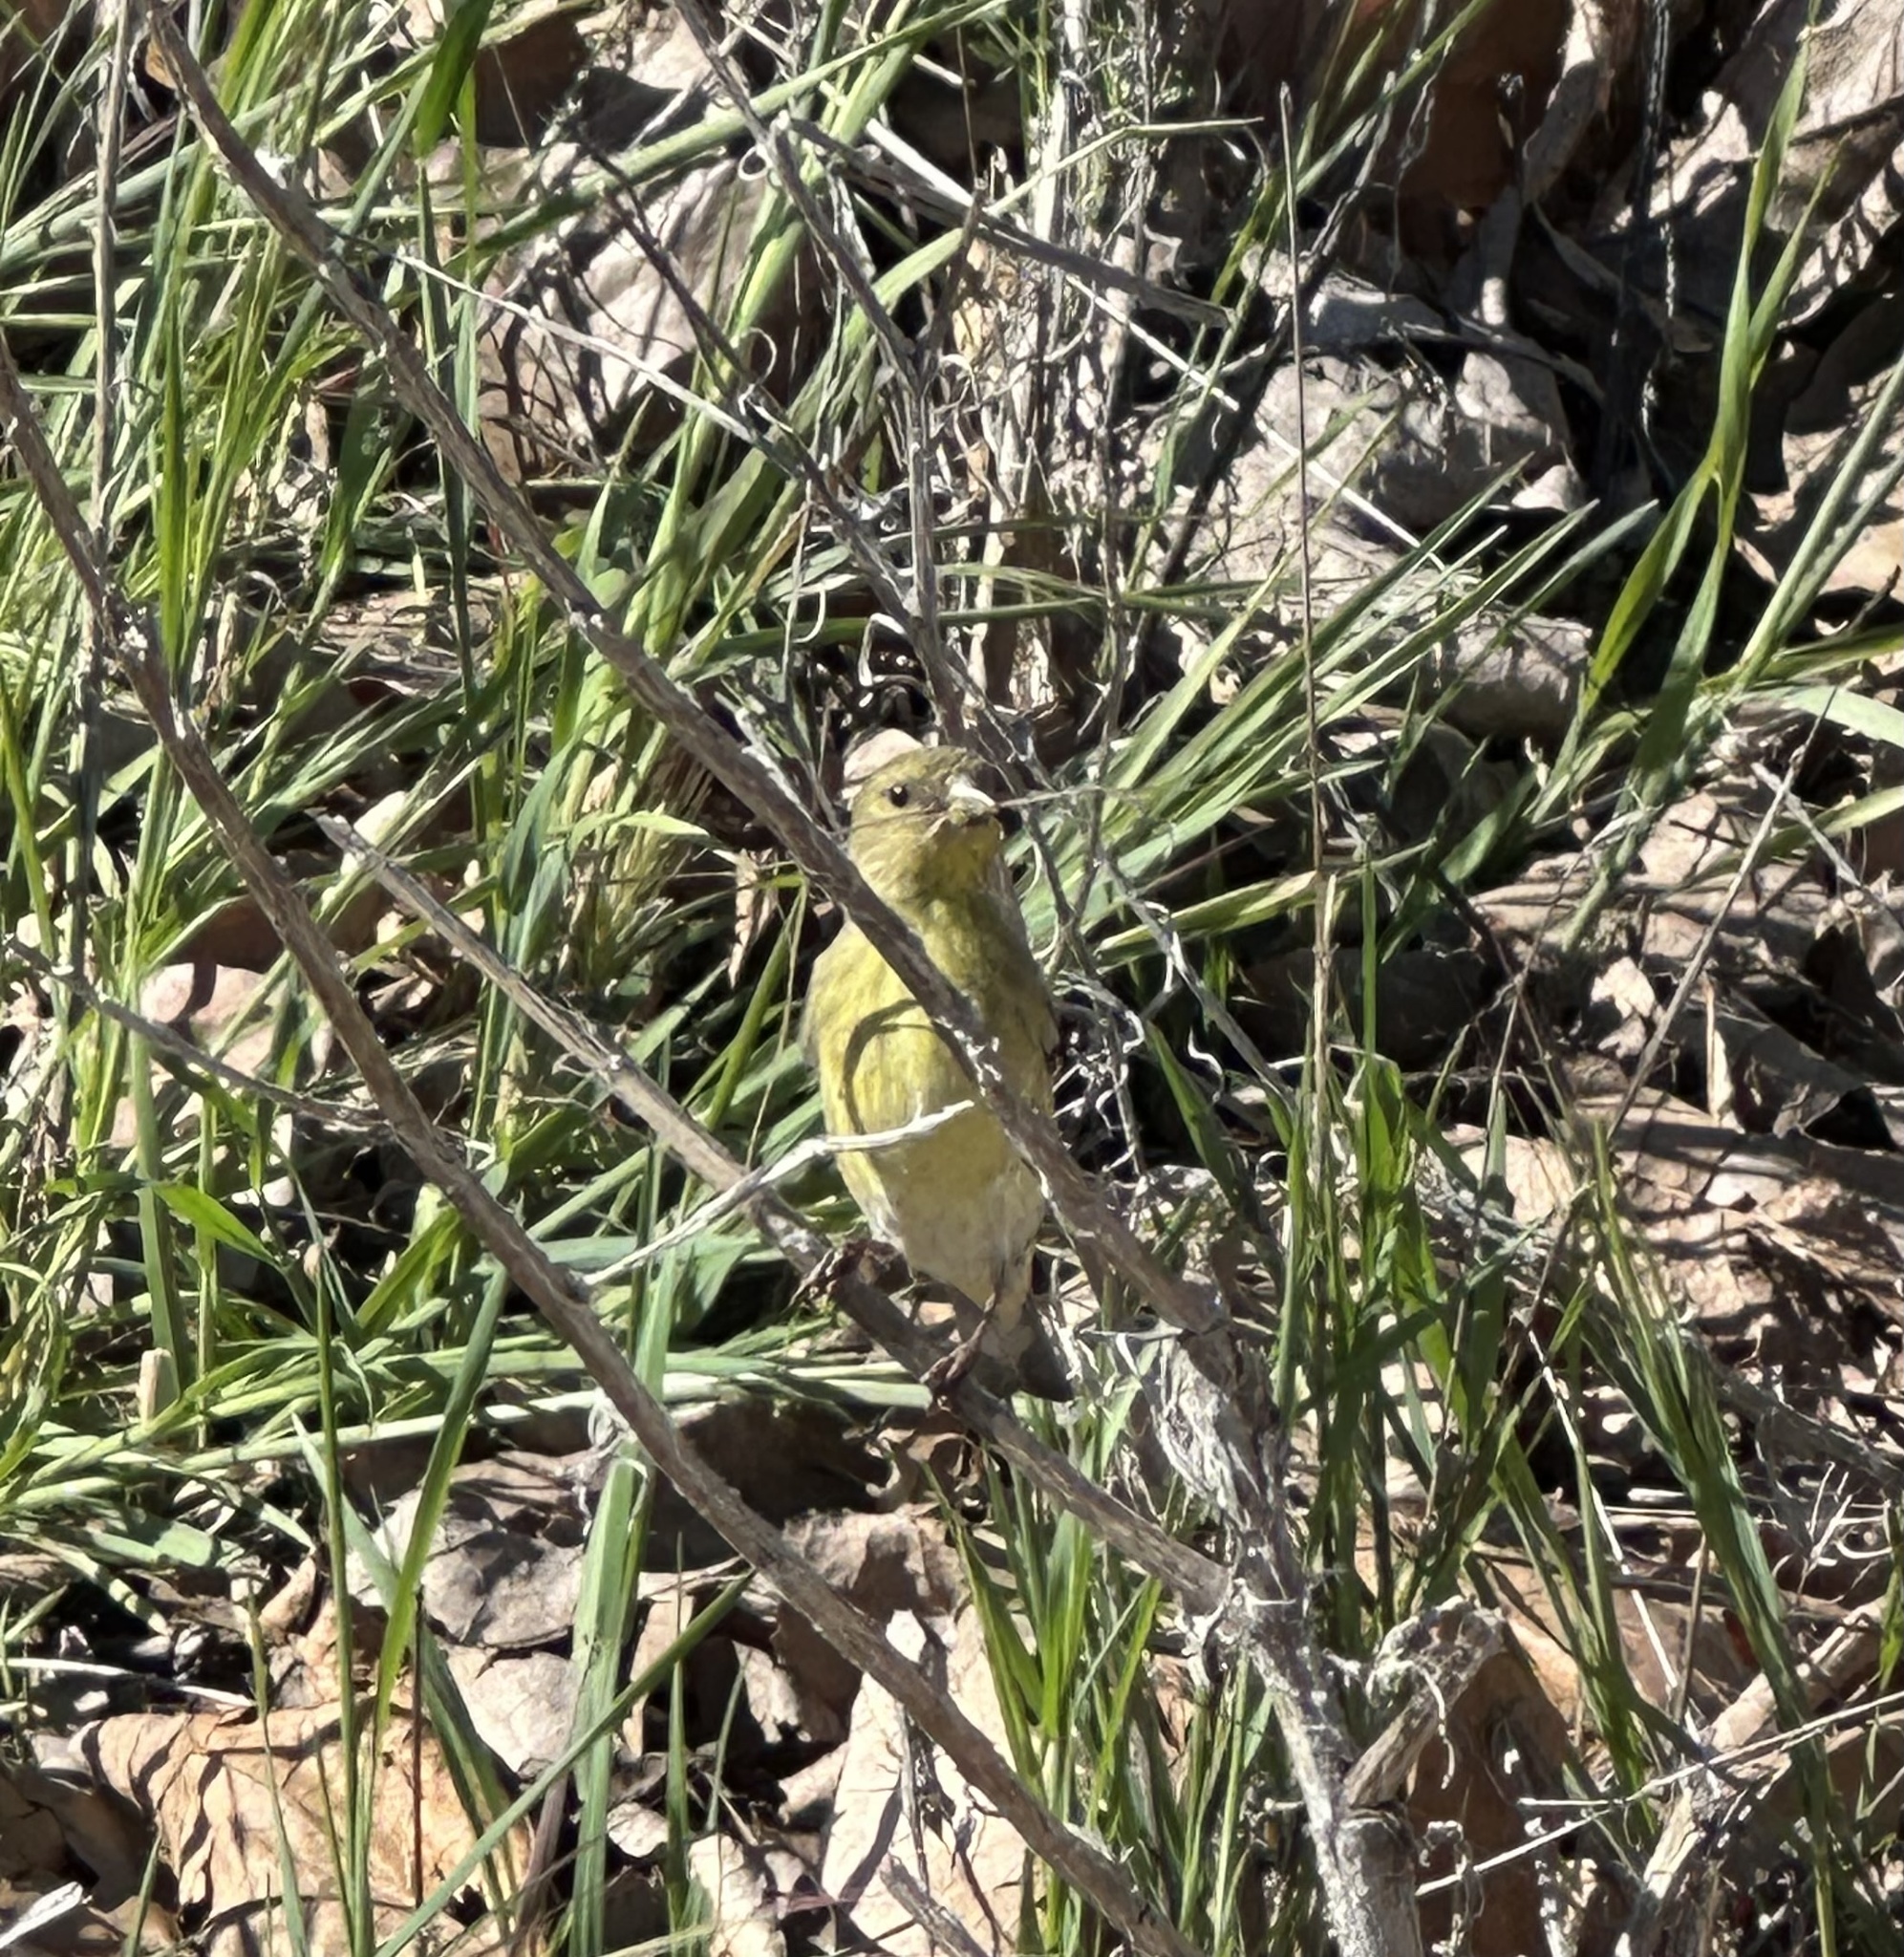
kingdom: Animalia
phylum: Chordata
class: Aves
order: Passeriformes
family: Fringillidae
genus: Spinus
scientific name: Spinus psaltria
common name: Lesser goldfinch
